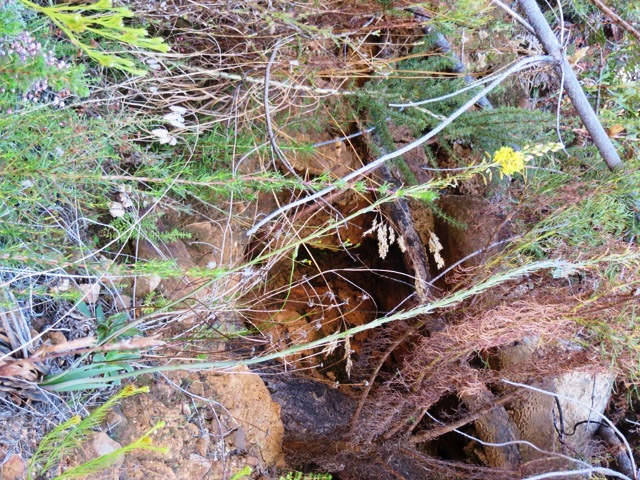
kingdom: Plantae
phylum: Tracheophyta
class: Liliopsida
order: Asparagales
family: Asphodelaceae
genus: Bulbine
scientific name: Bulbine praemorsa
